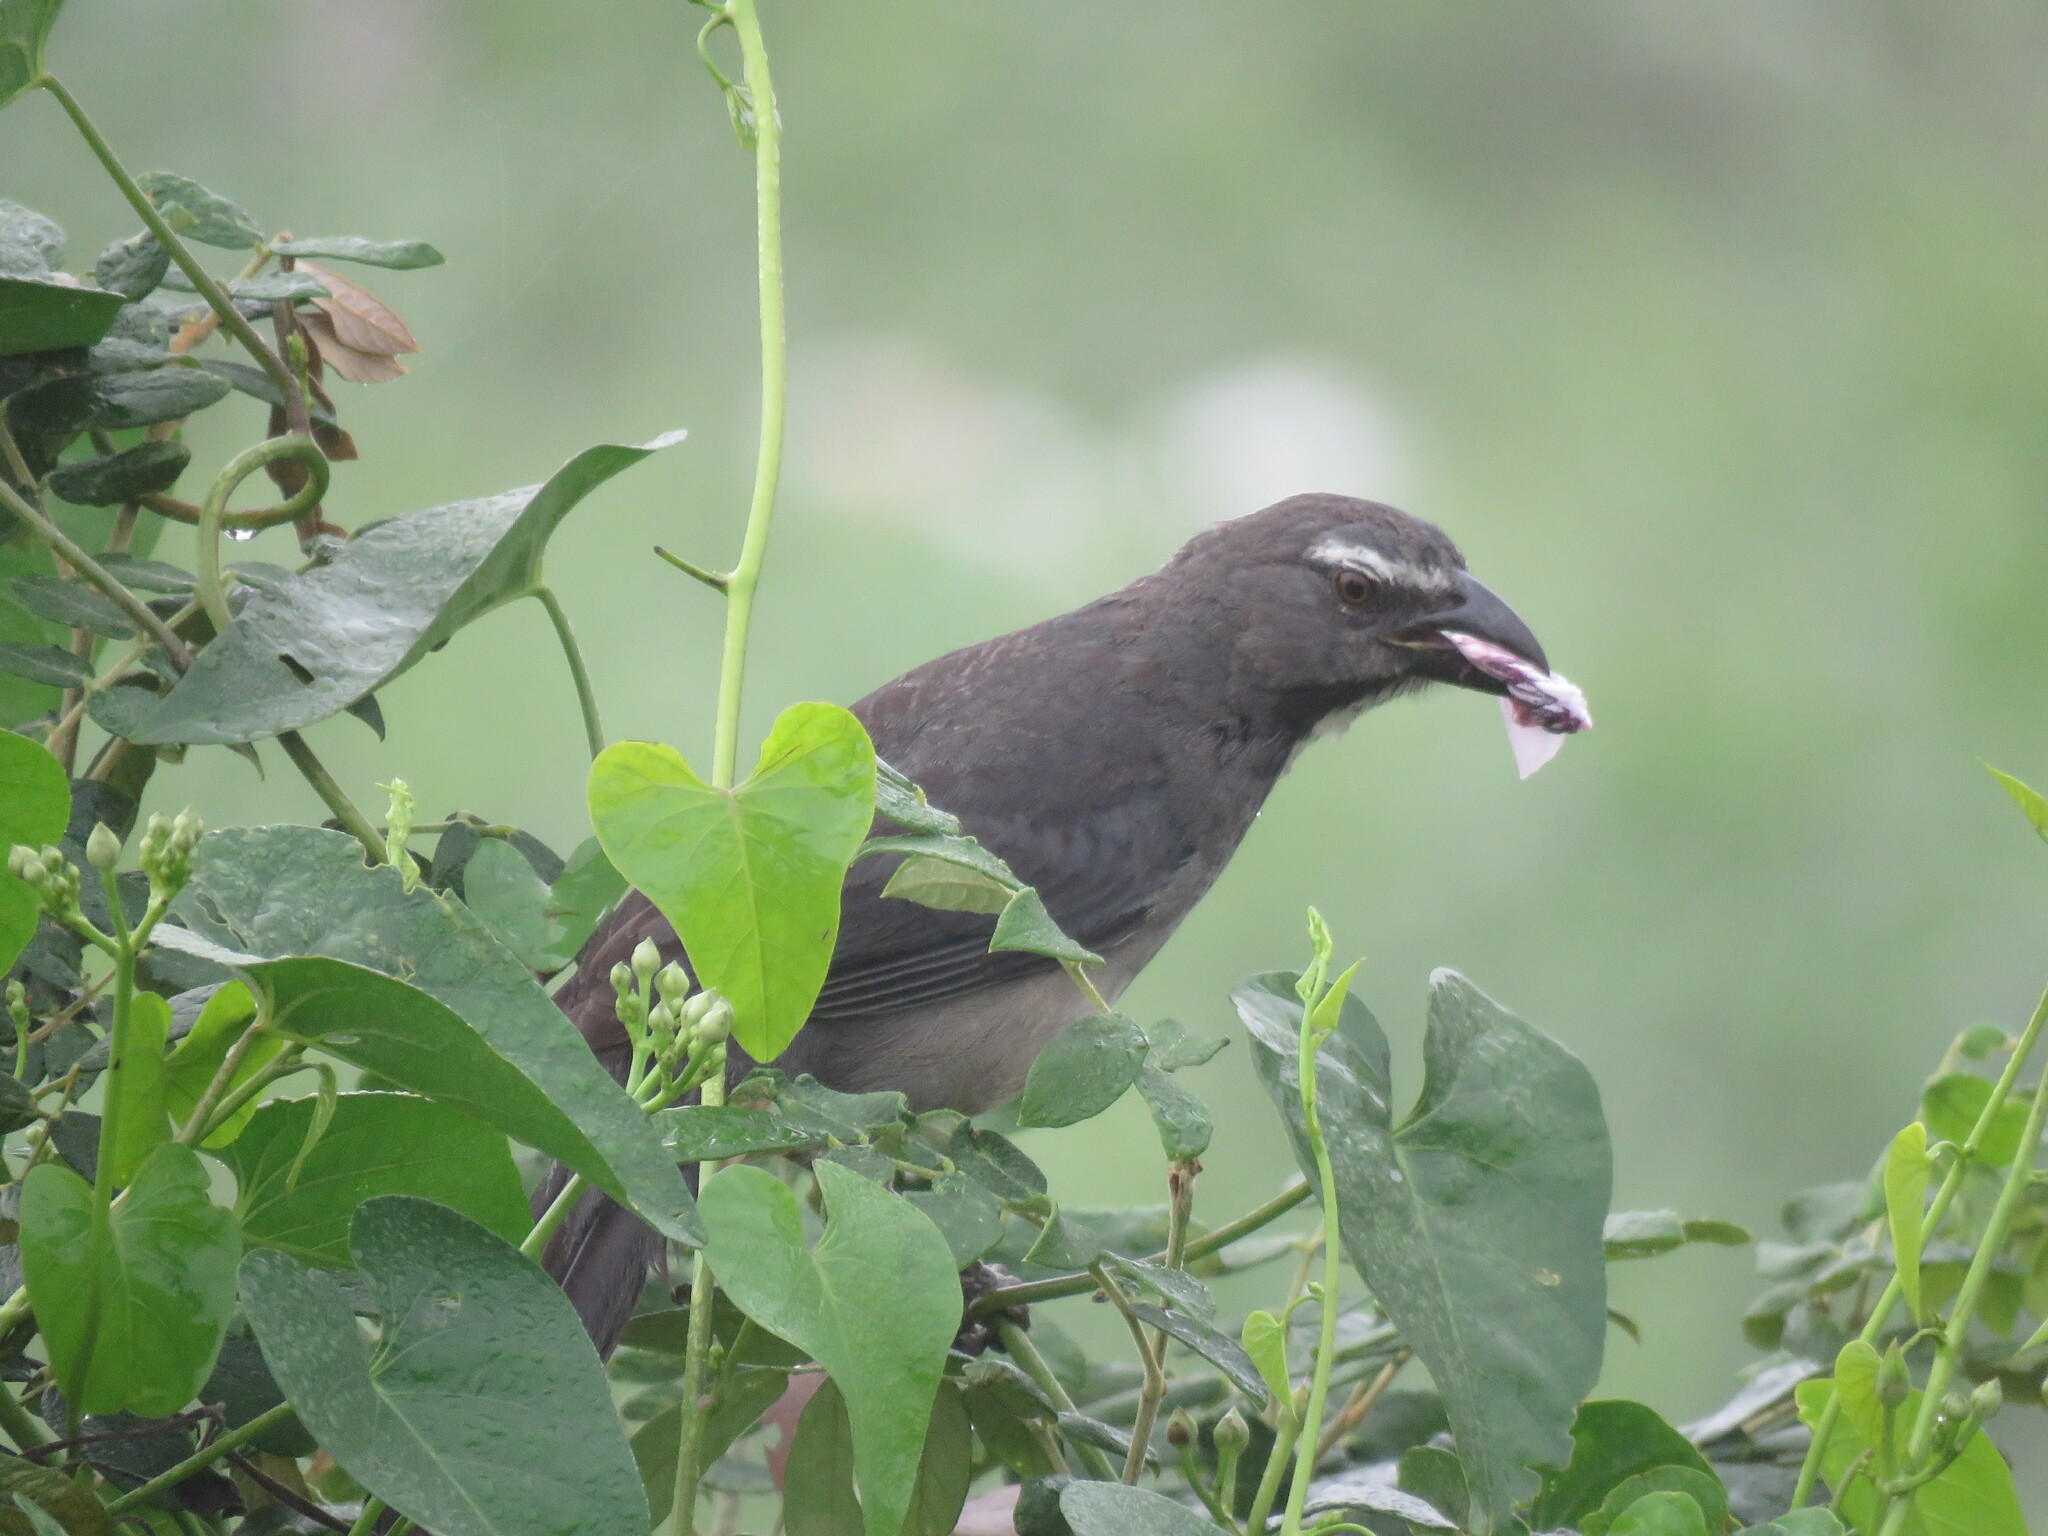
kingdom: Animalia
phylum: Chordata
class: Aves
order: Passeriformes
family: Thraupidae
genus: Saltator
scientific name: Saltator coerulescens
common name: Grayish saltator
